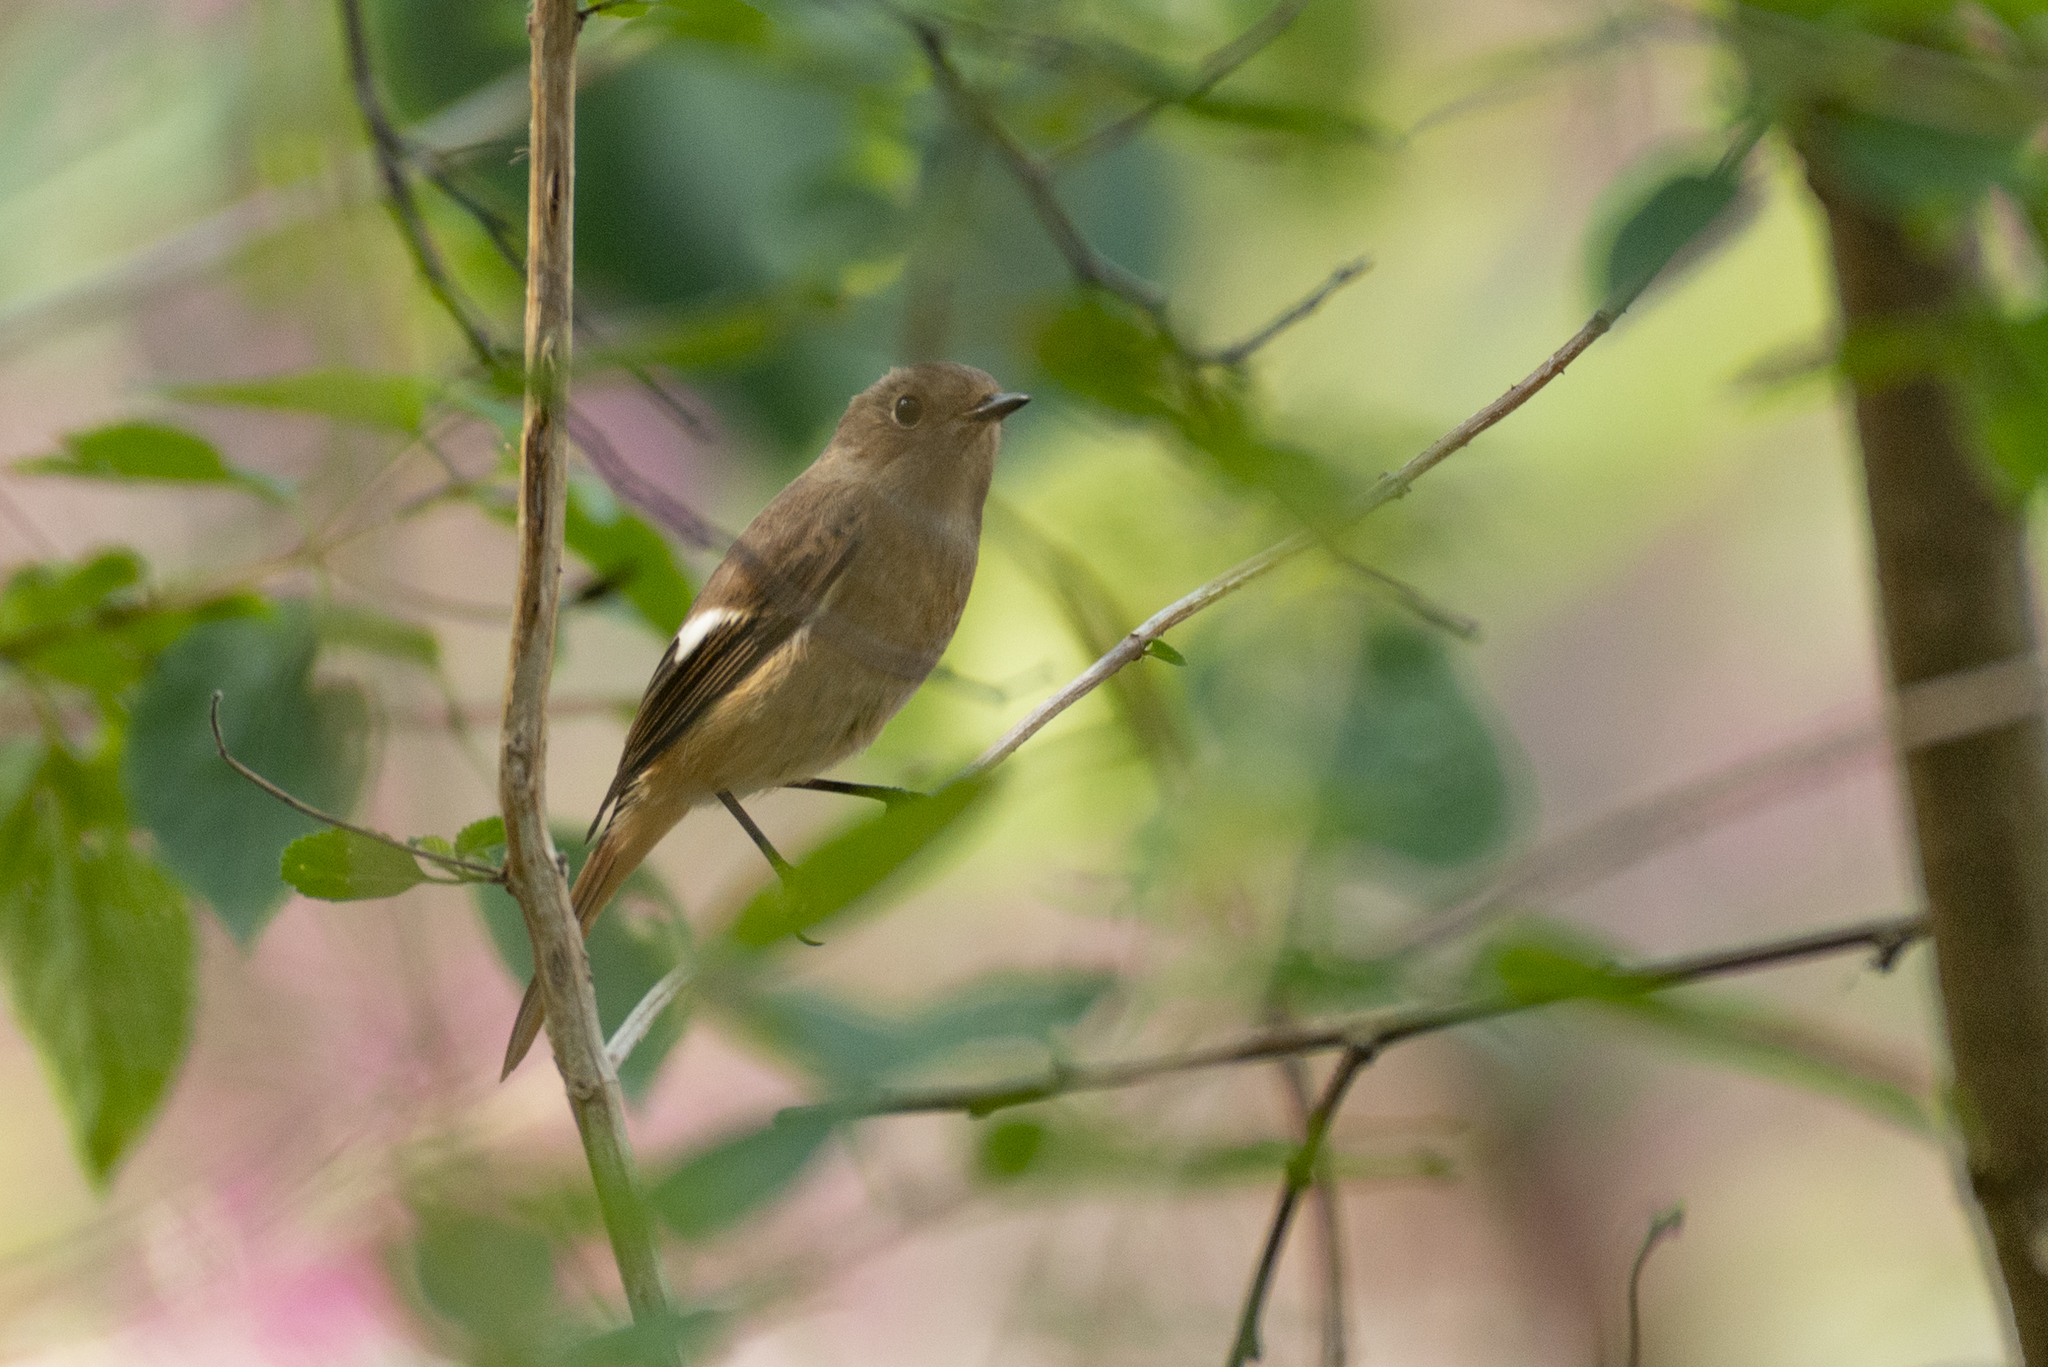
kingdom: Animalia
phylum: Chordata
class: Aves
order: Passeriformes
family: Muscicapidae
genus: Phoenicurus
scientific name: Phoenicurus auroreus
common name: Daurian redstart
